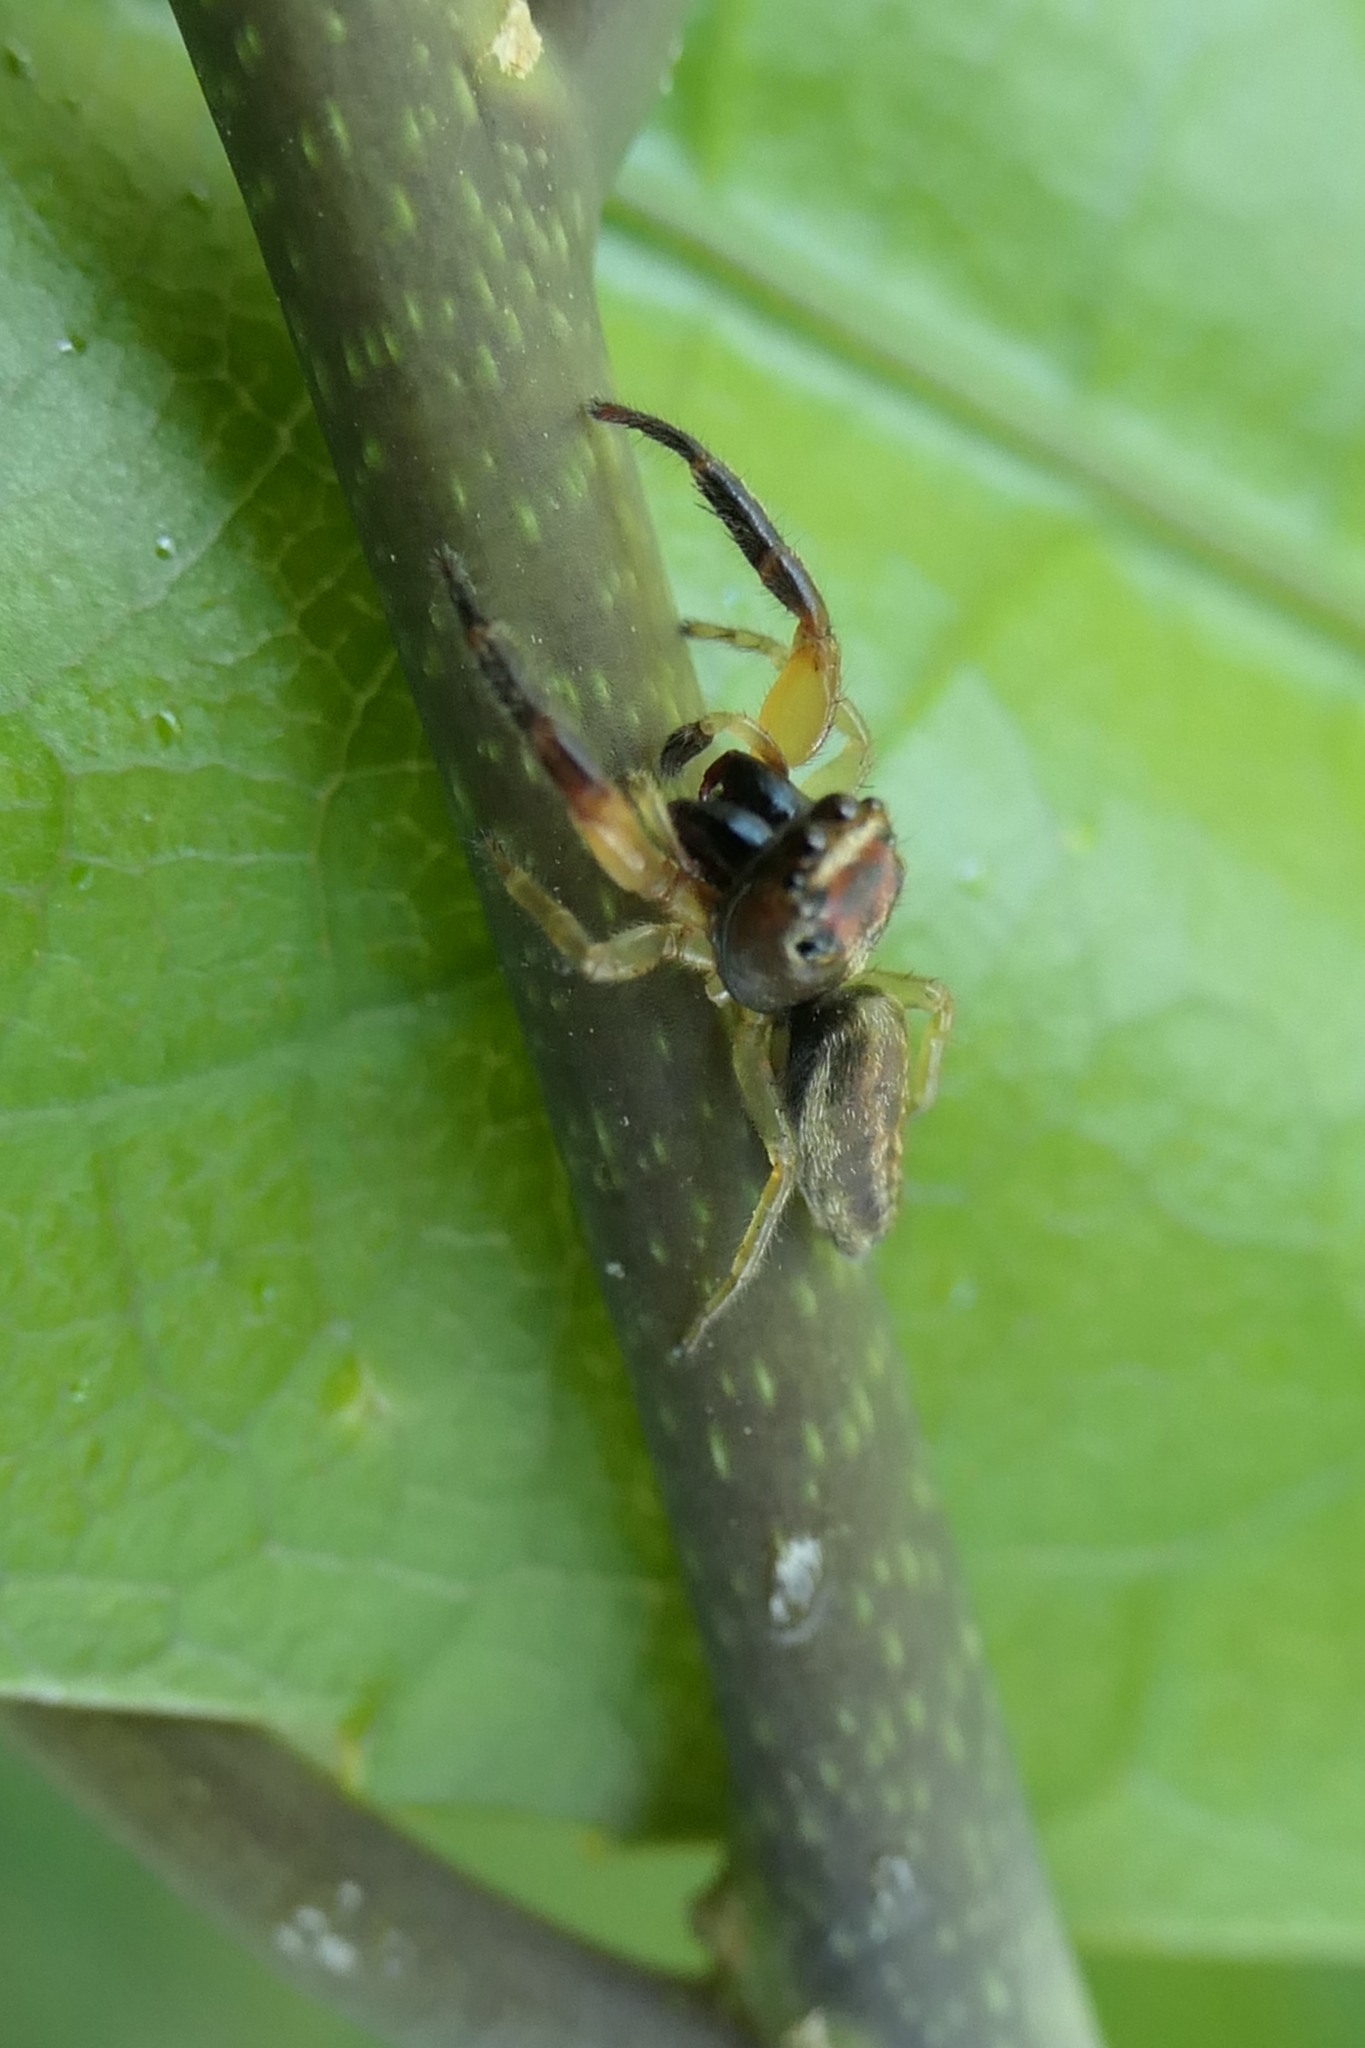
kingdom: Animalia
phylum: Arthropoda
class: Arachnida
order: Araneae
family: Salticidae
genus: Trite
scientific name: Trite mustilina
